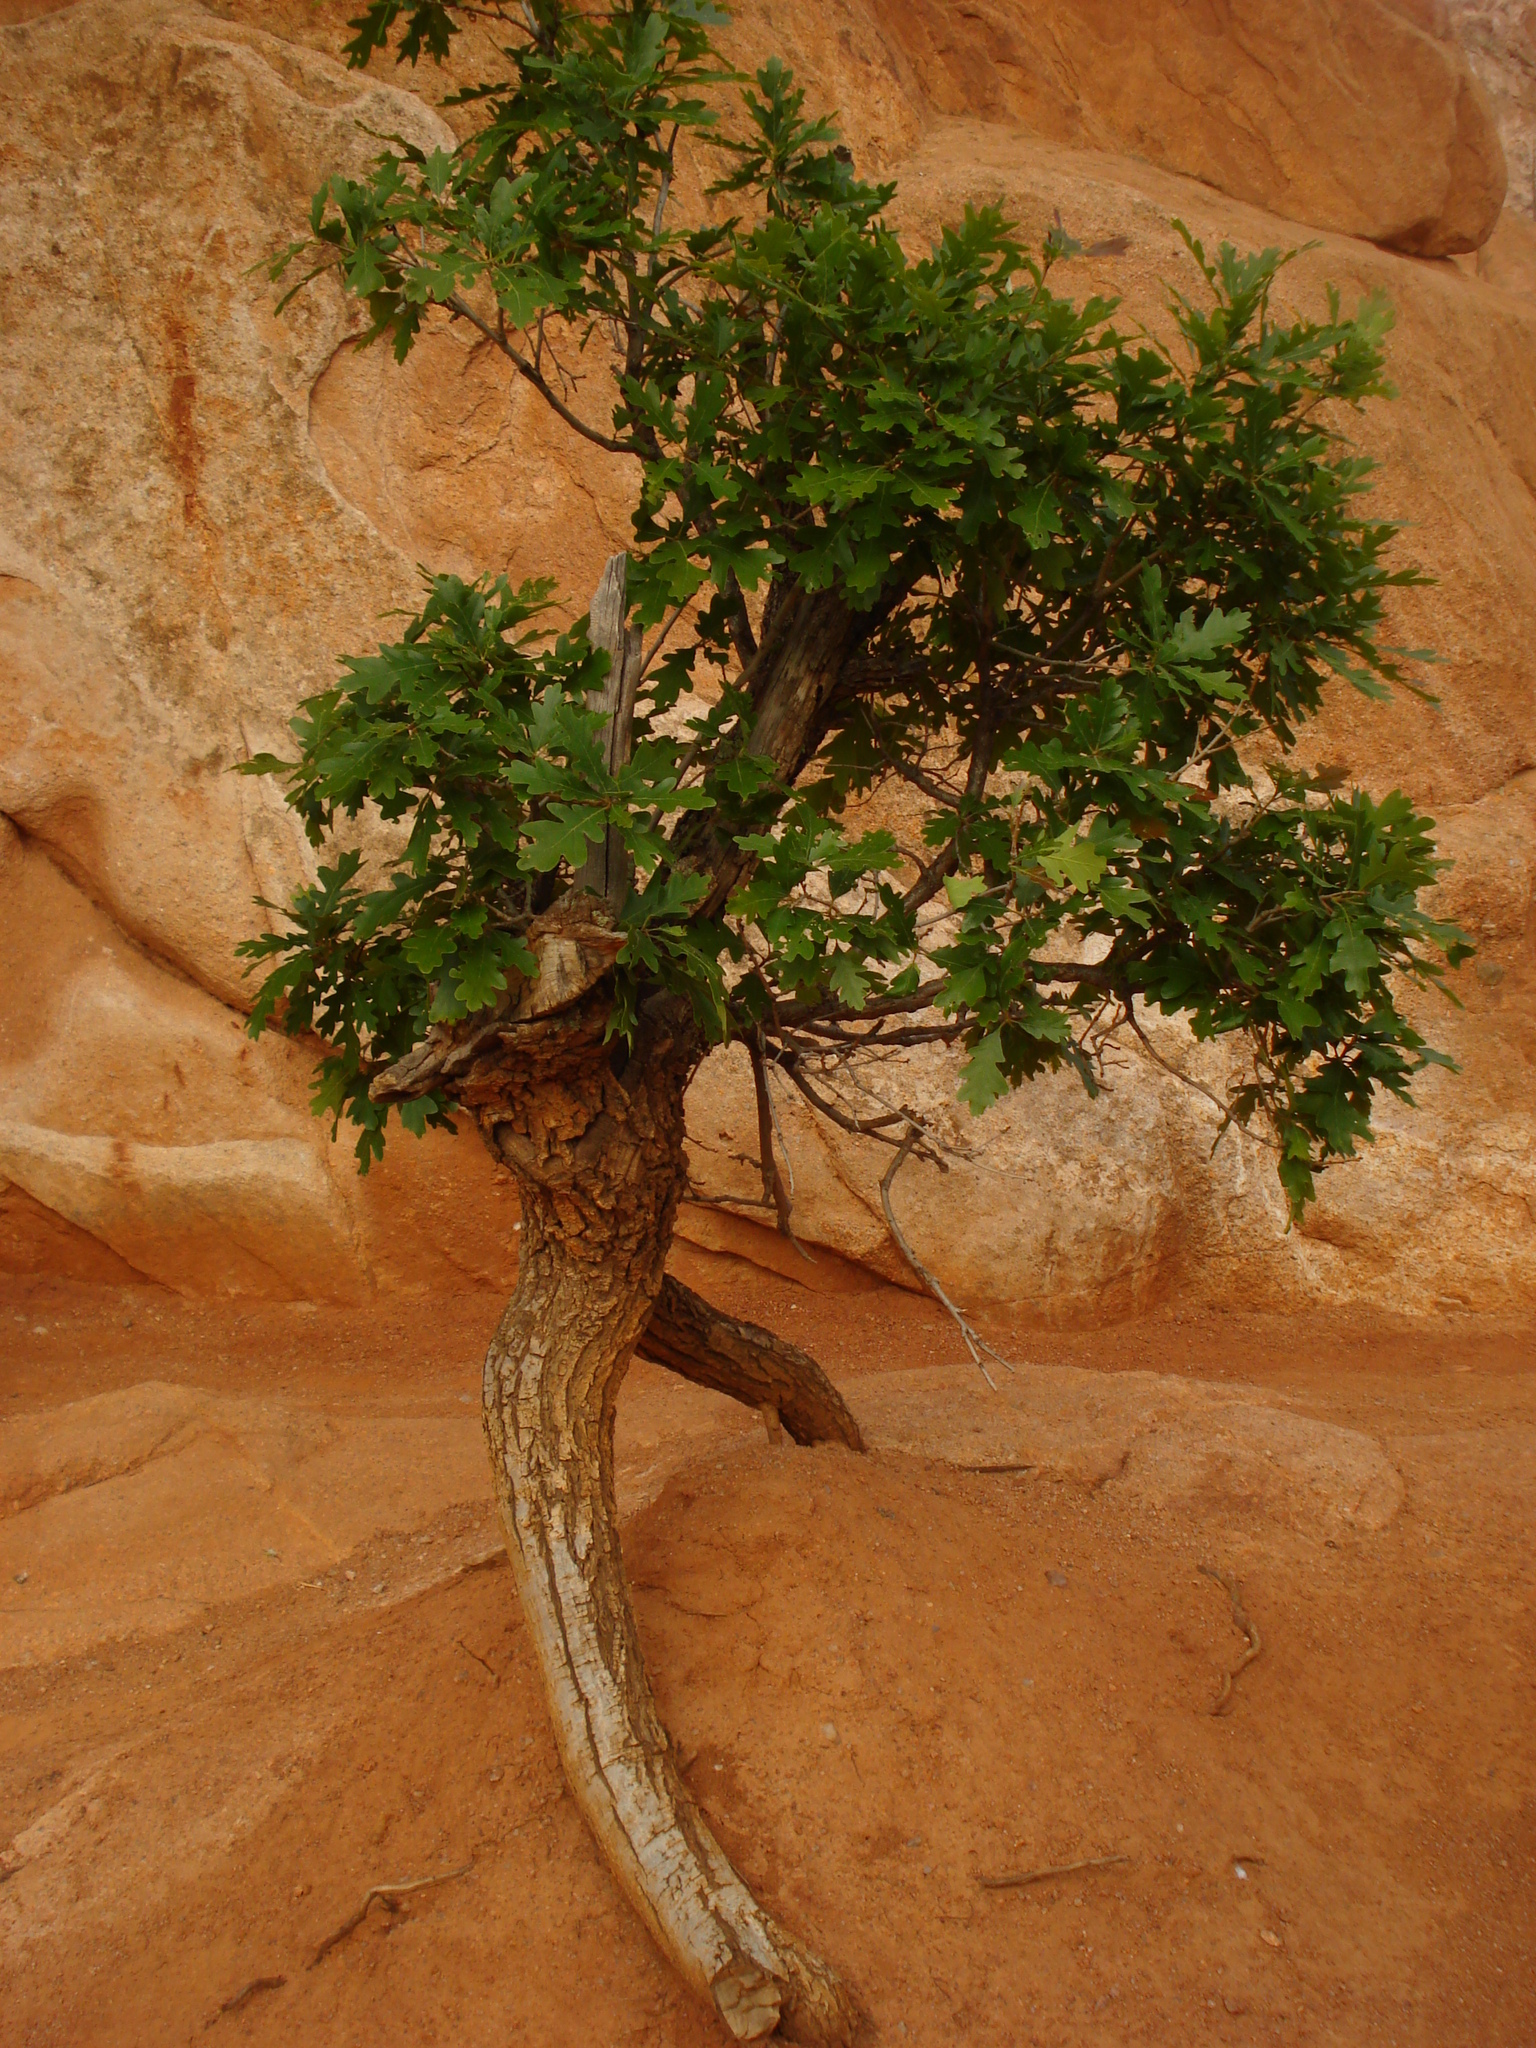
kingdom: Plantae
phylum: Tracheophyta
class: Magnoliopsida
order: Fagales
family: Fagaceae
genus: Quercus
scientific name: Quercus gambelii
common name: Gambel oak
